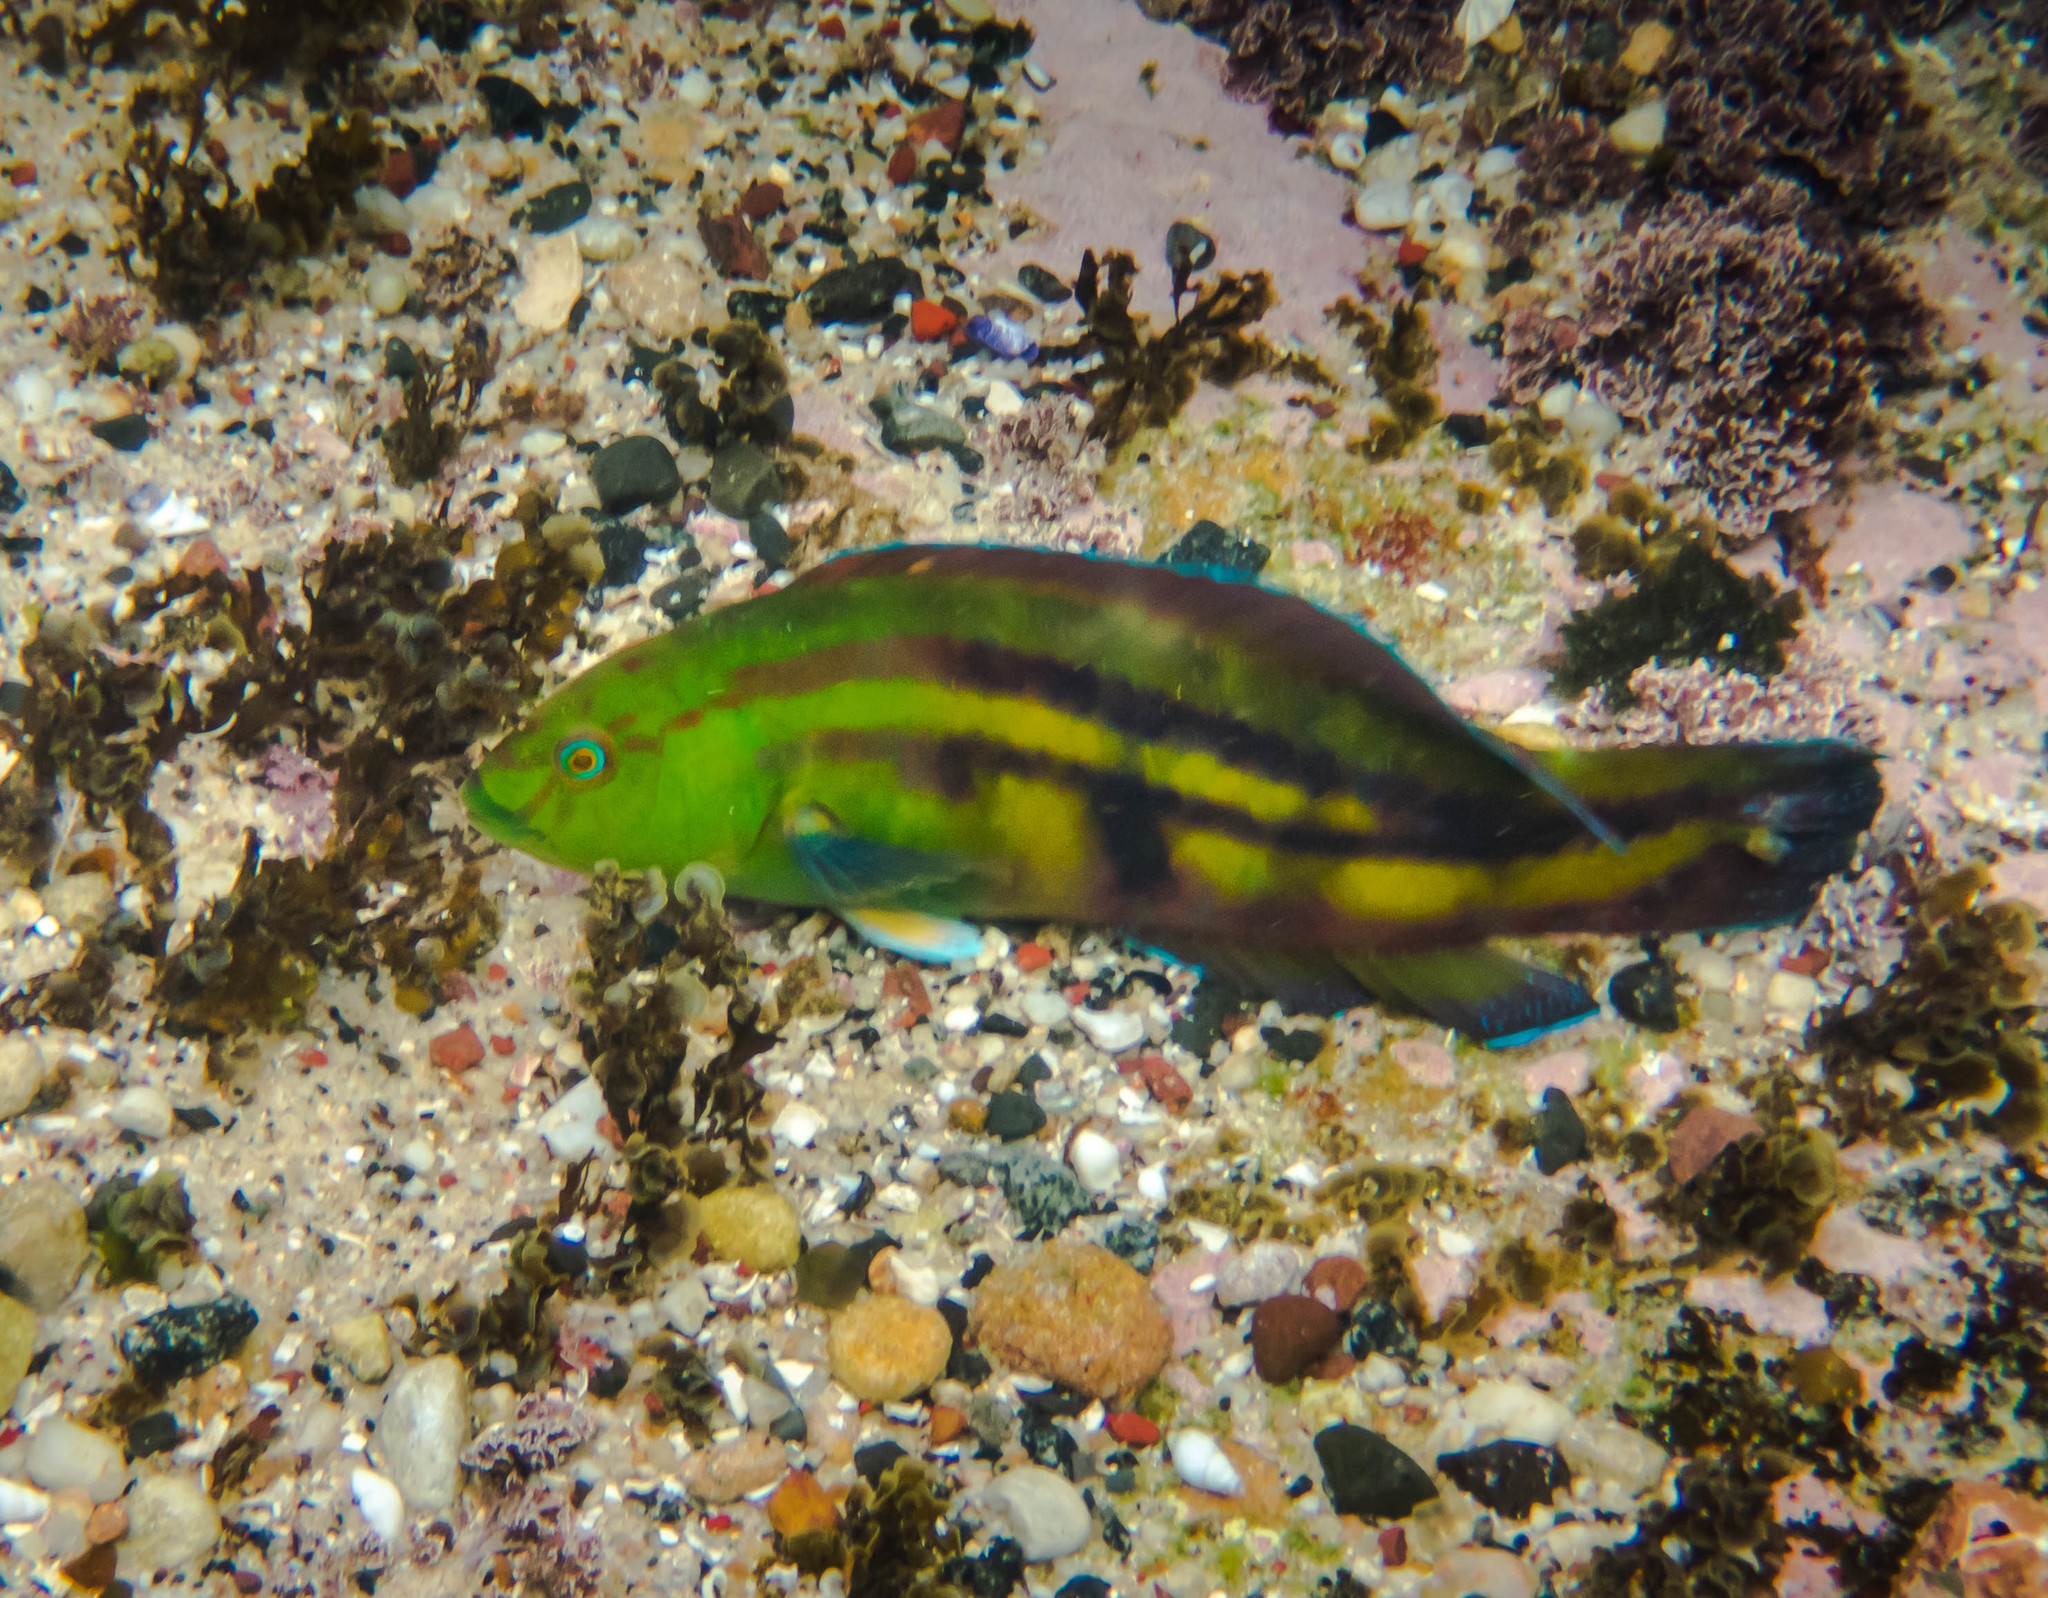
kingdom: Animalia
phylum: Chordata
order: Perciformes
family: Labridae
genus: Pictilabrus
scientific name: Pictilabrus laticlavius
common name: Patrician wrasse
